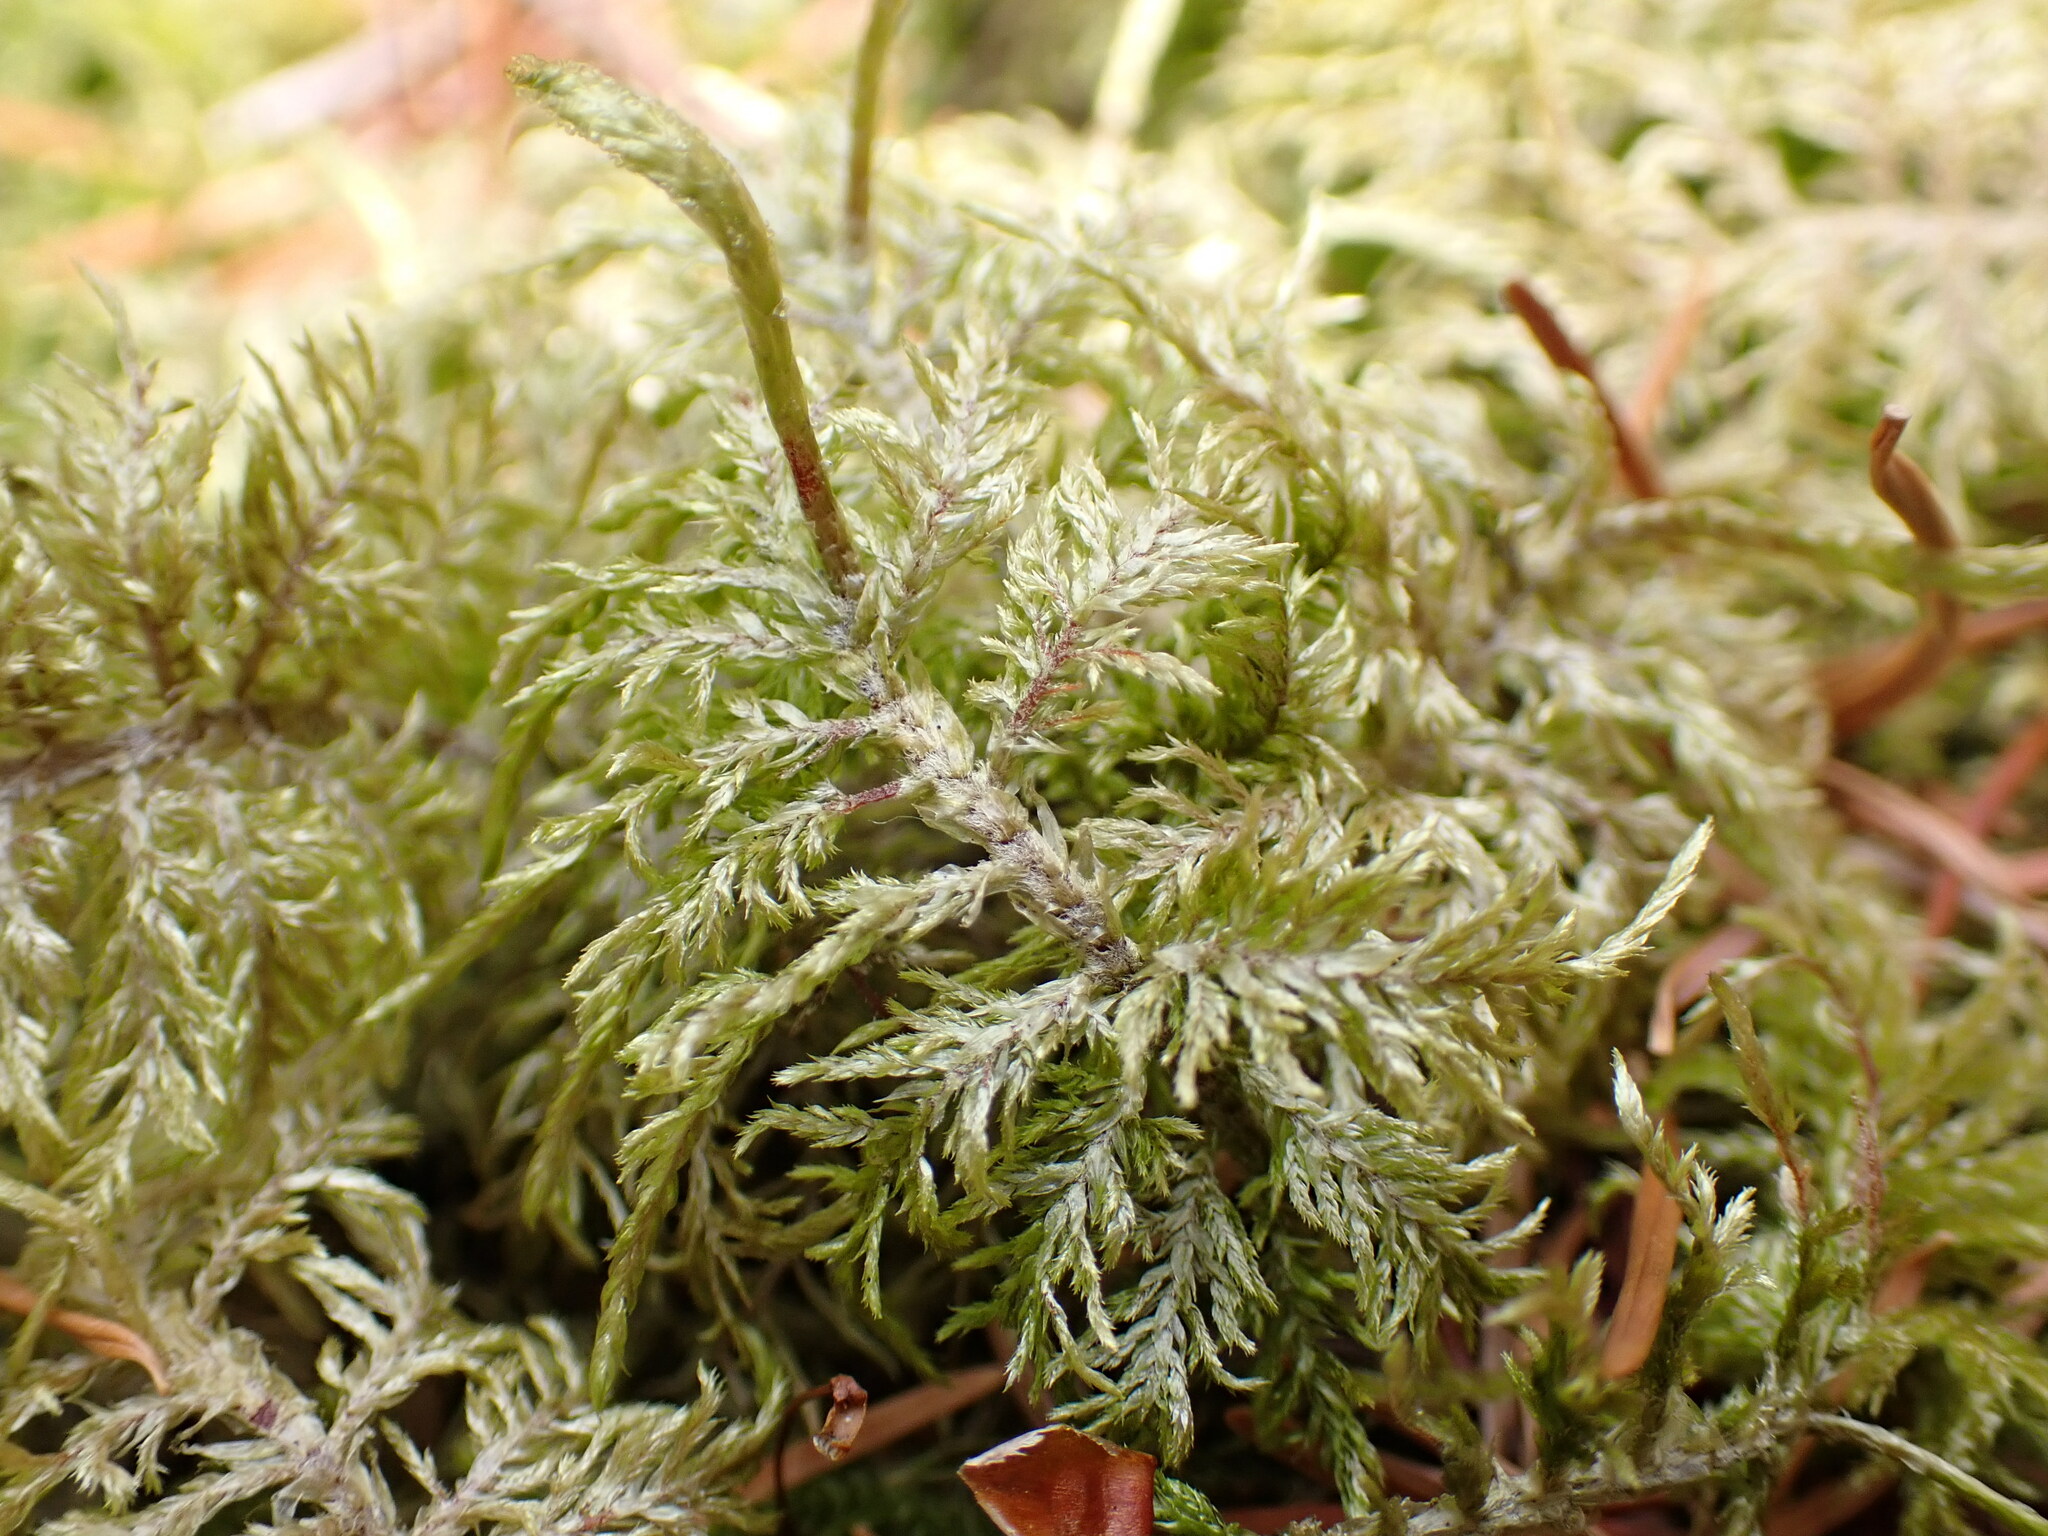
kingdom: Plantae
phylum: Bryophyta
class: Bryopsida
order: Hypnales
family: Hylocomiaceae
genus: Hylocomium
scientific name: Hylocomium splendens
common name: Stairstep moss
